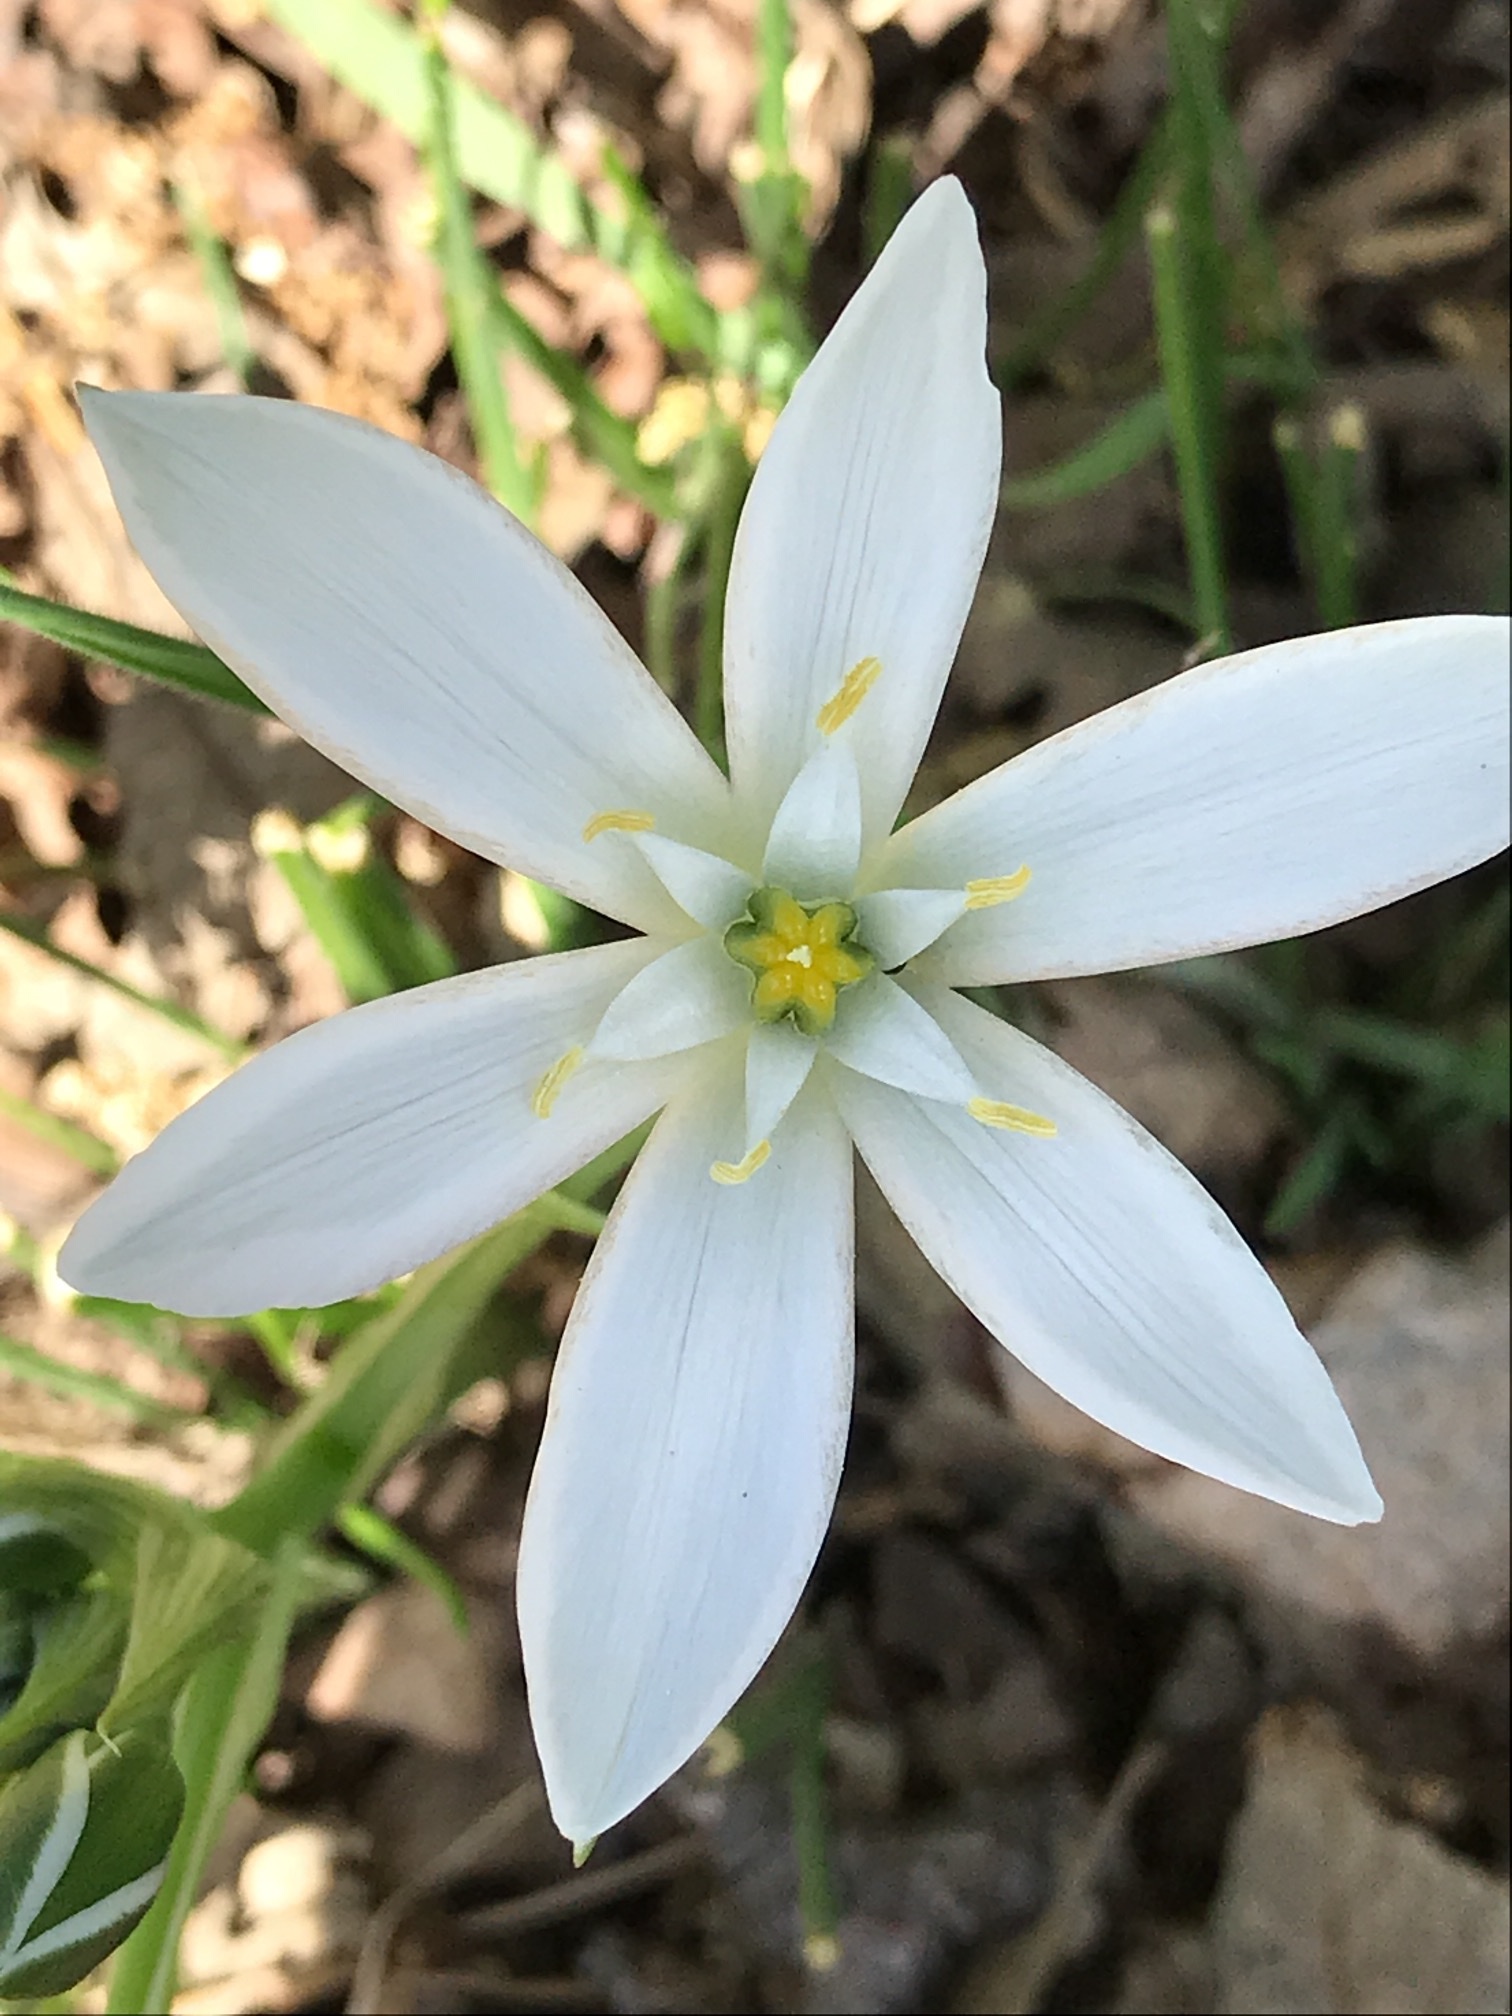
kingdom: Plantae
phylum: Tracheophyta
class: Liliopsida
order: Asparagales
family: Asparagaceae
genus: Ornithogalum
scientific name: Ornithogalum umbellatum
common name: Garden star-of-bethlehem
